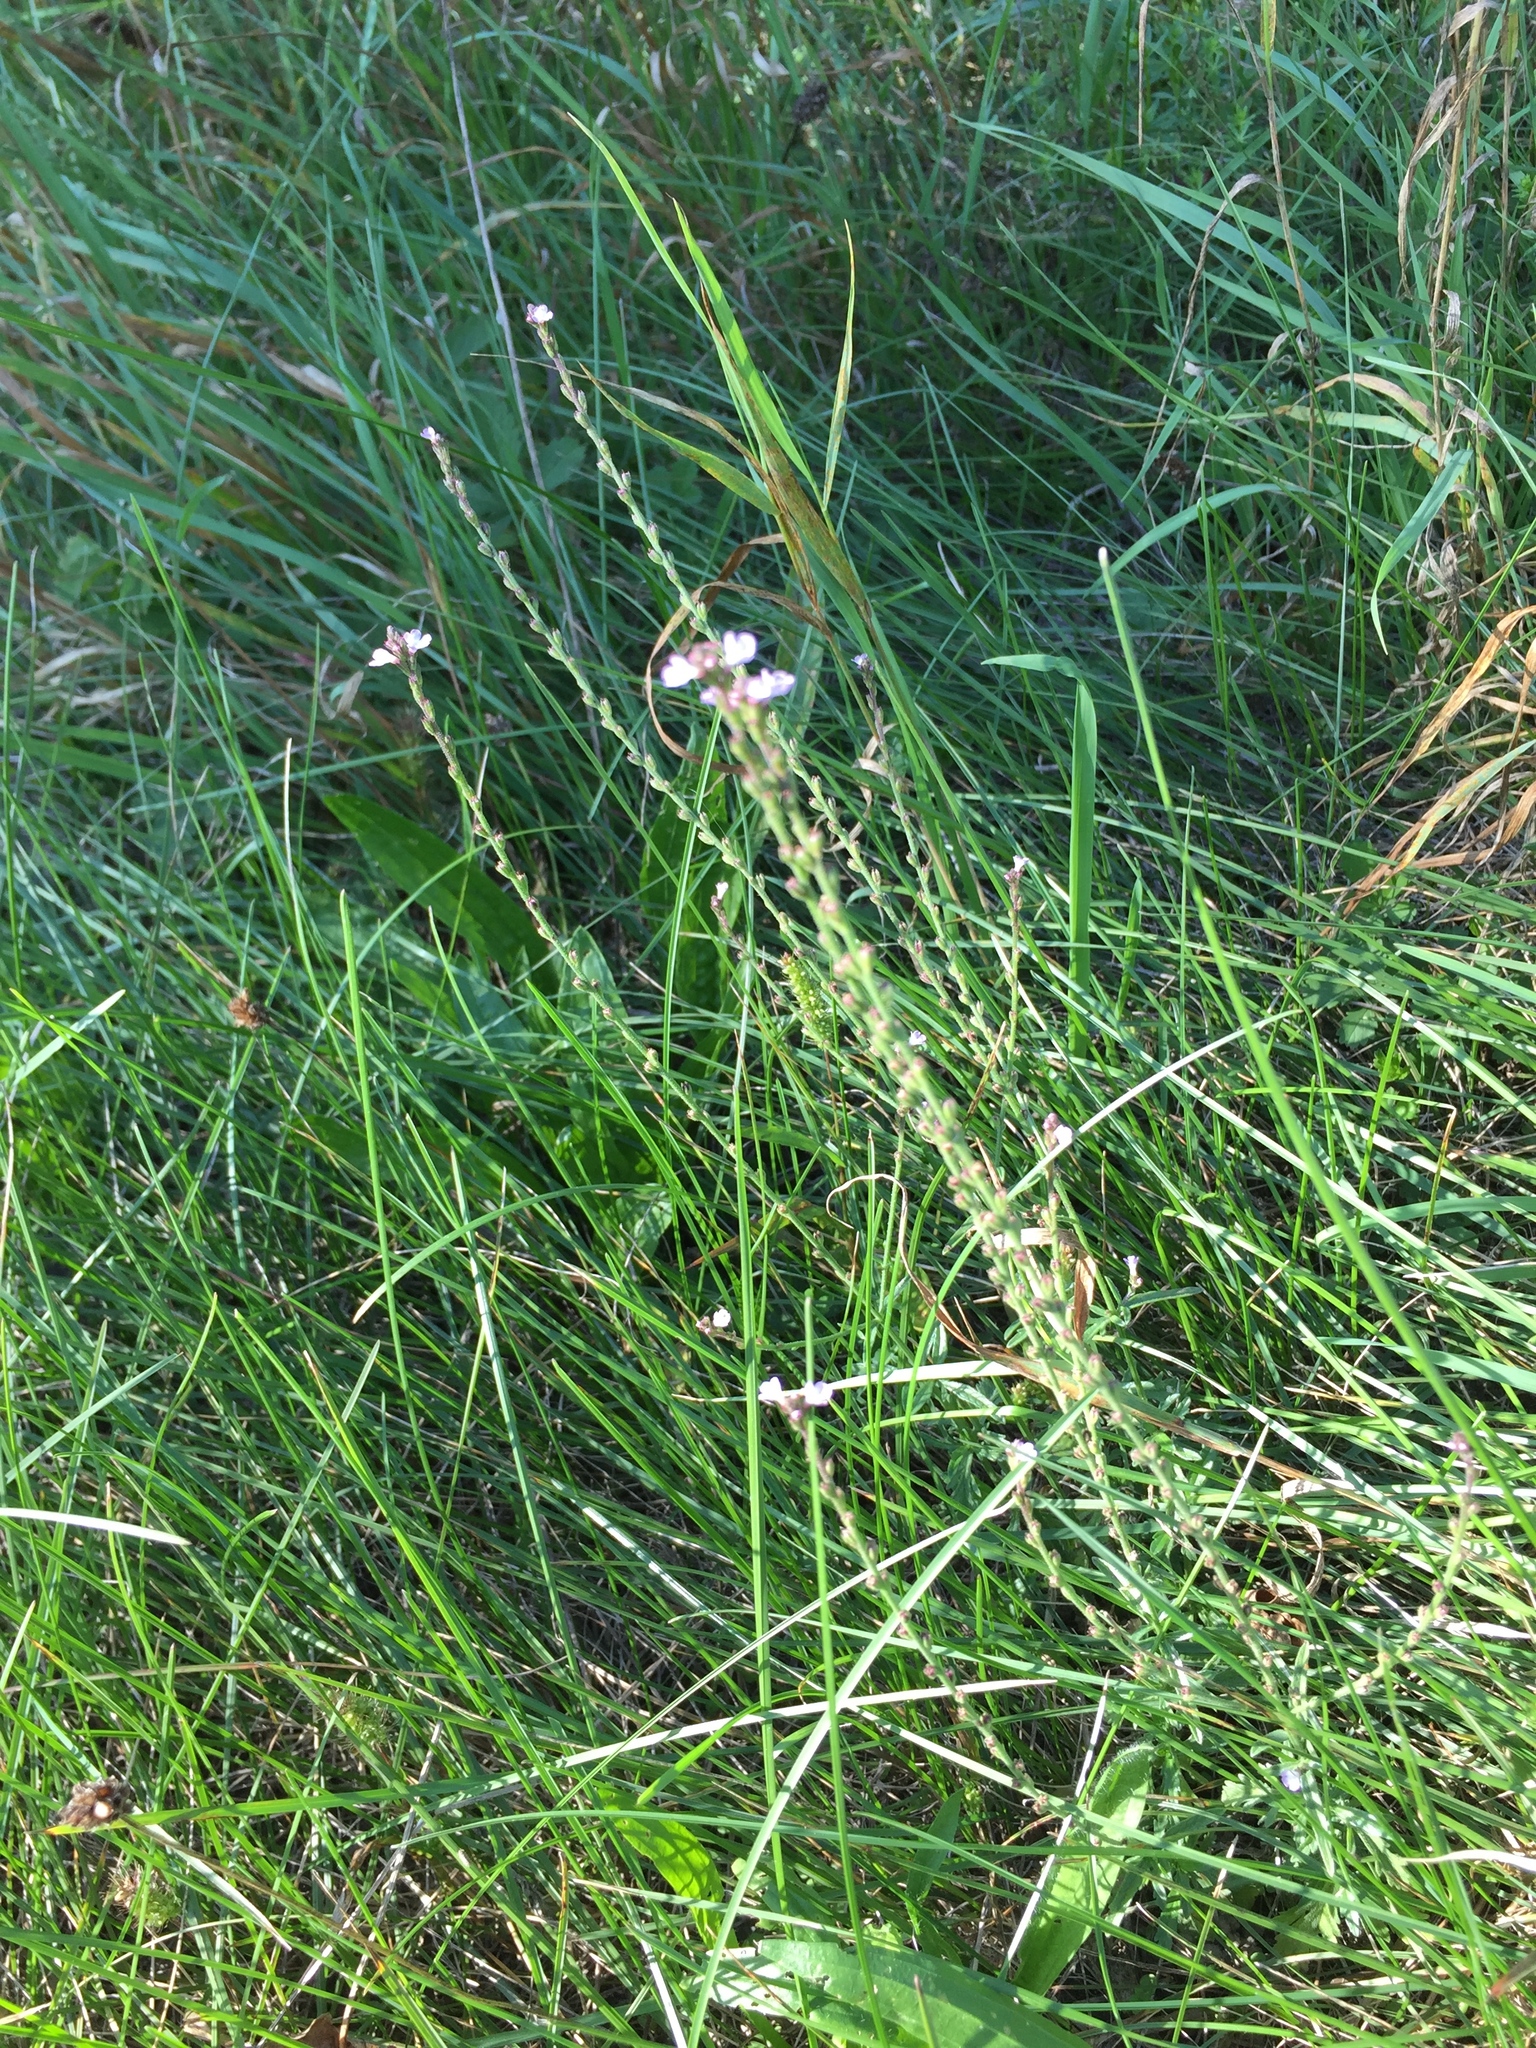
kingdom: Plantae
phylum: Tracheophyta
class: Magnoliopsida
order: Lamiales
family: Verbenaceae
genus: Verbena
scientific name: Verbena officinalis
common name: Vervain
